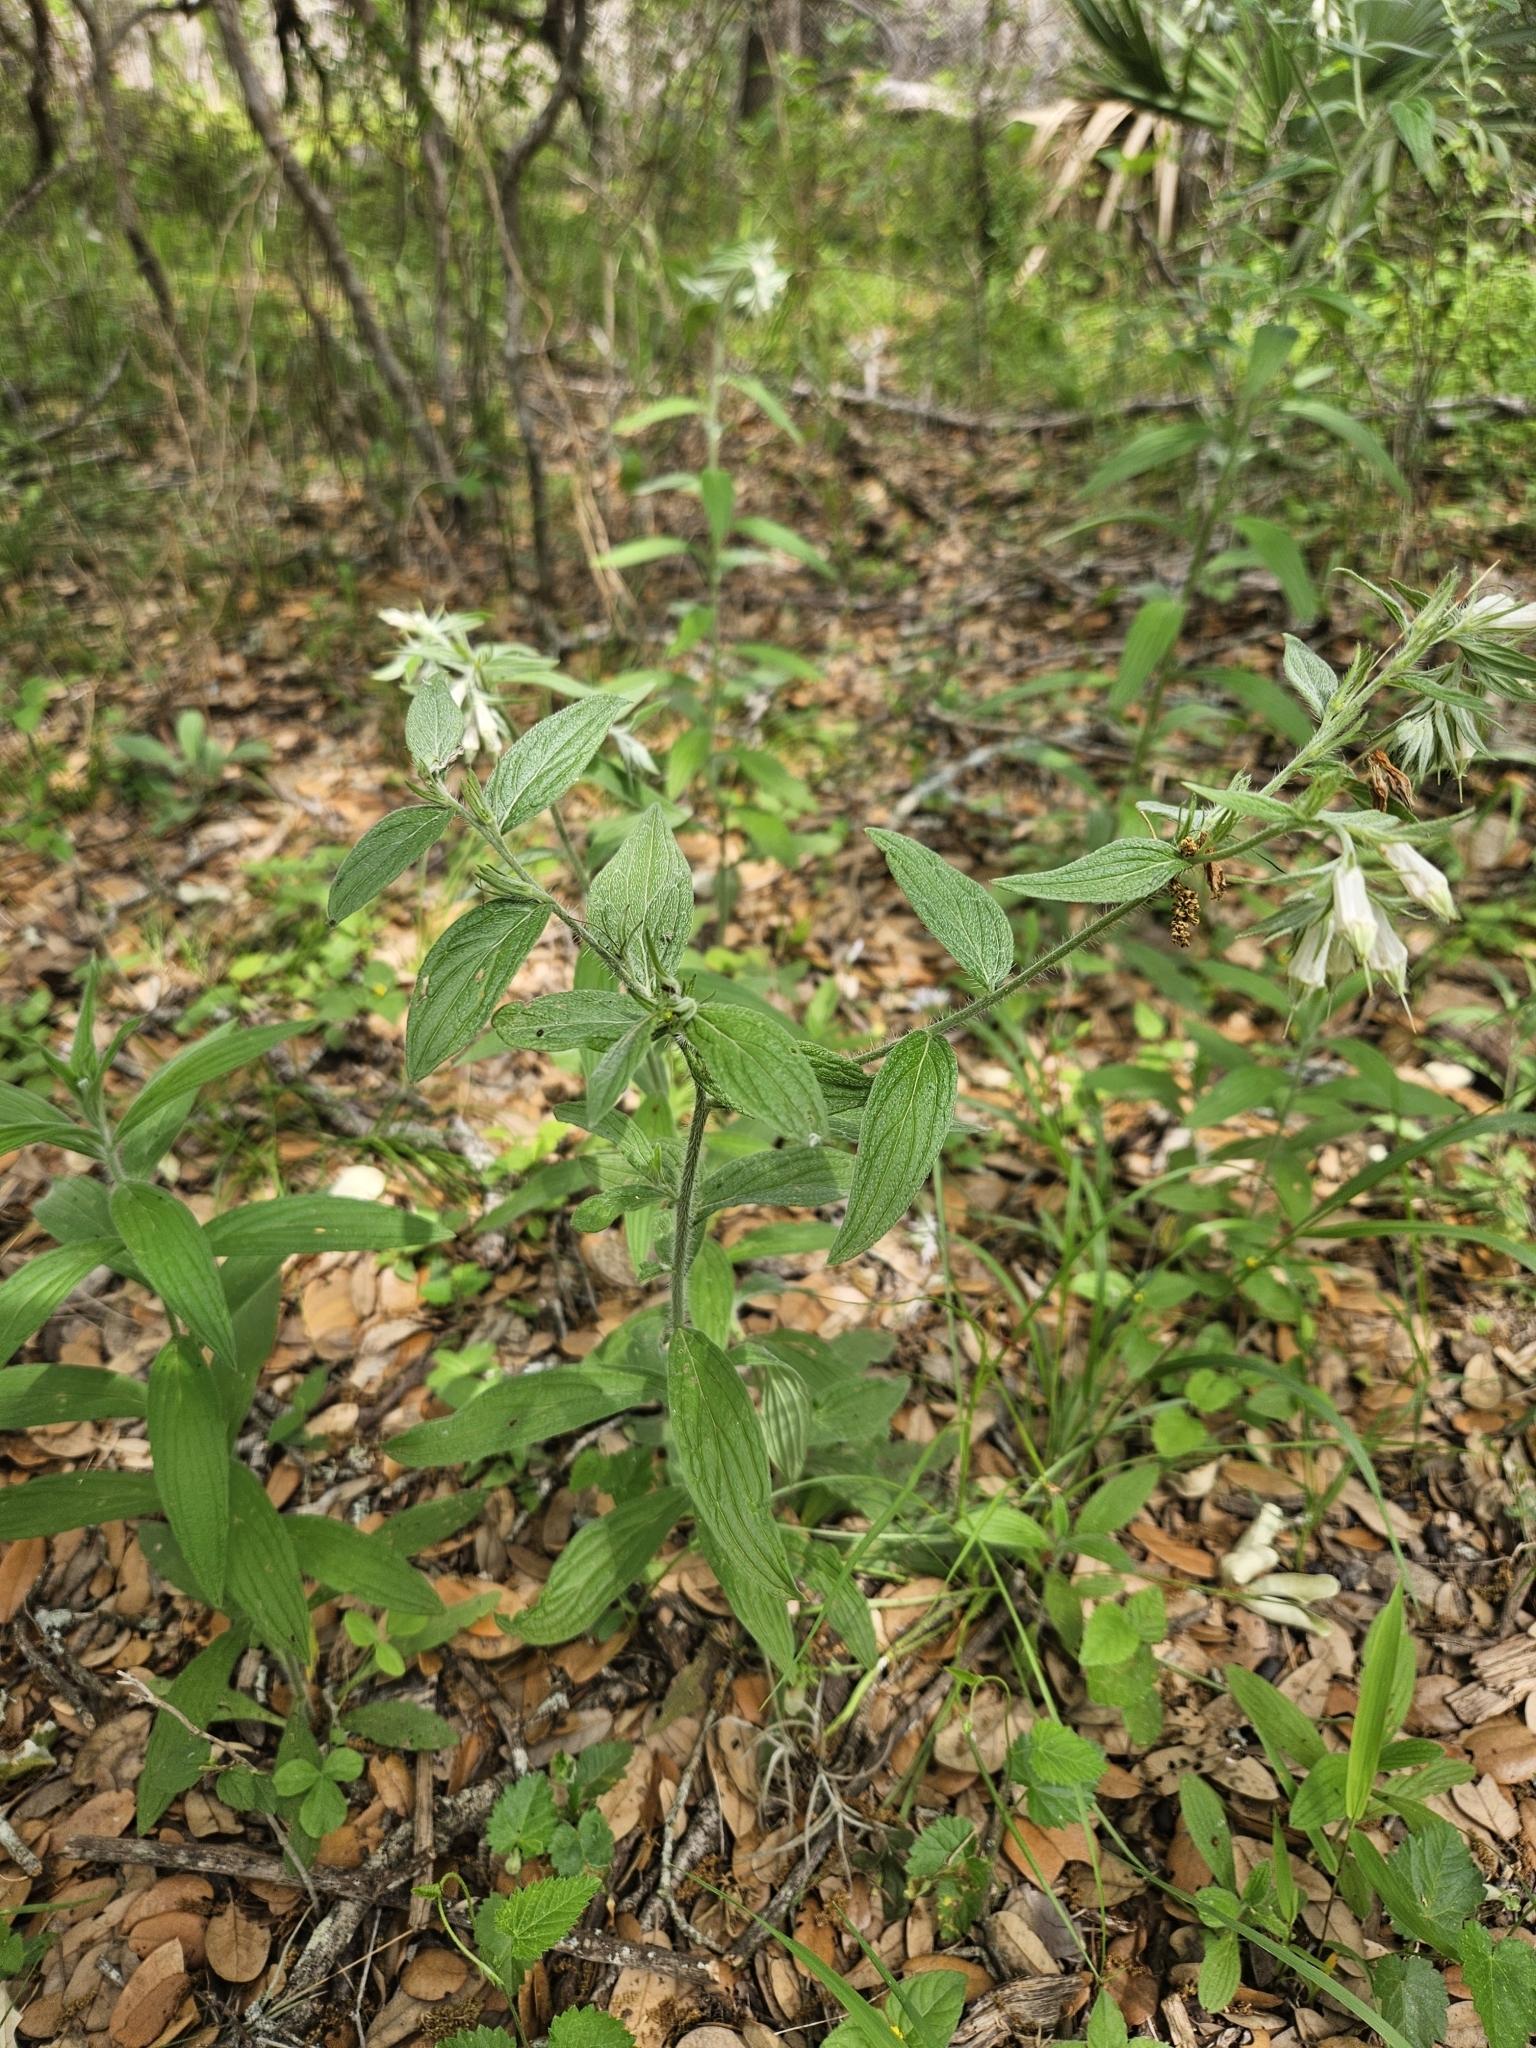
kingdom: Plantae
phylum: Tracheophyta
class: Magnoliopsida
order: Boraginales
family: Boraginaceae
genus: Lithospermum
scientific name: Lithospermum caroliniense
